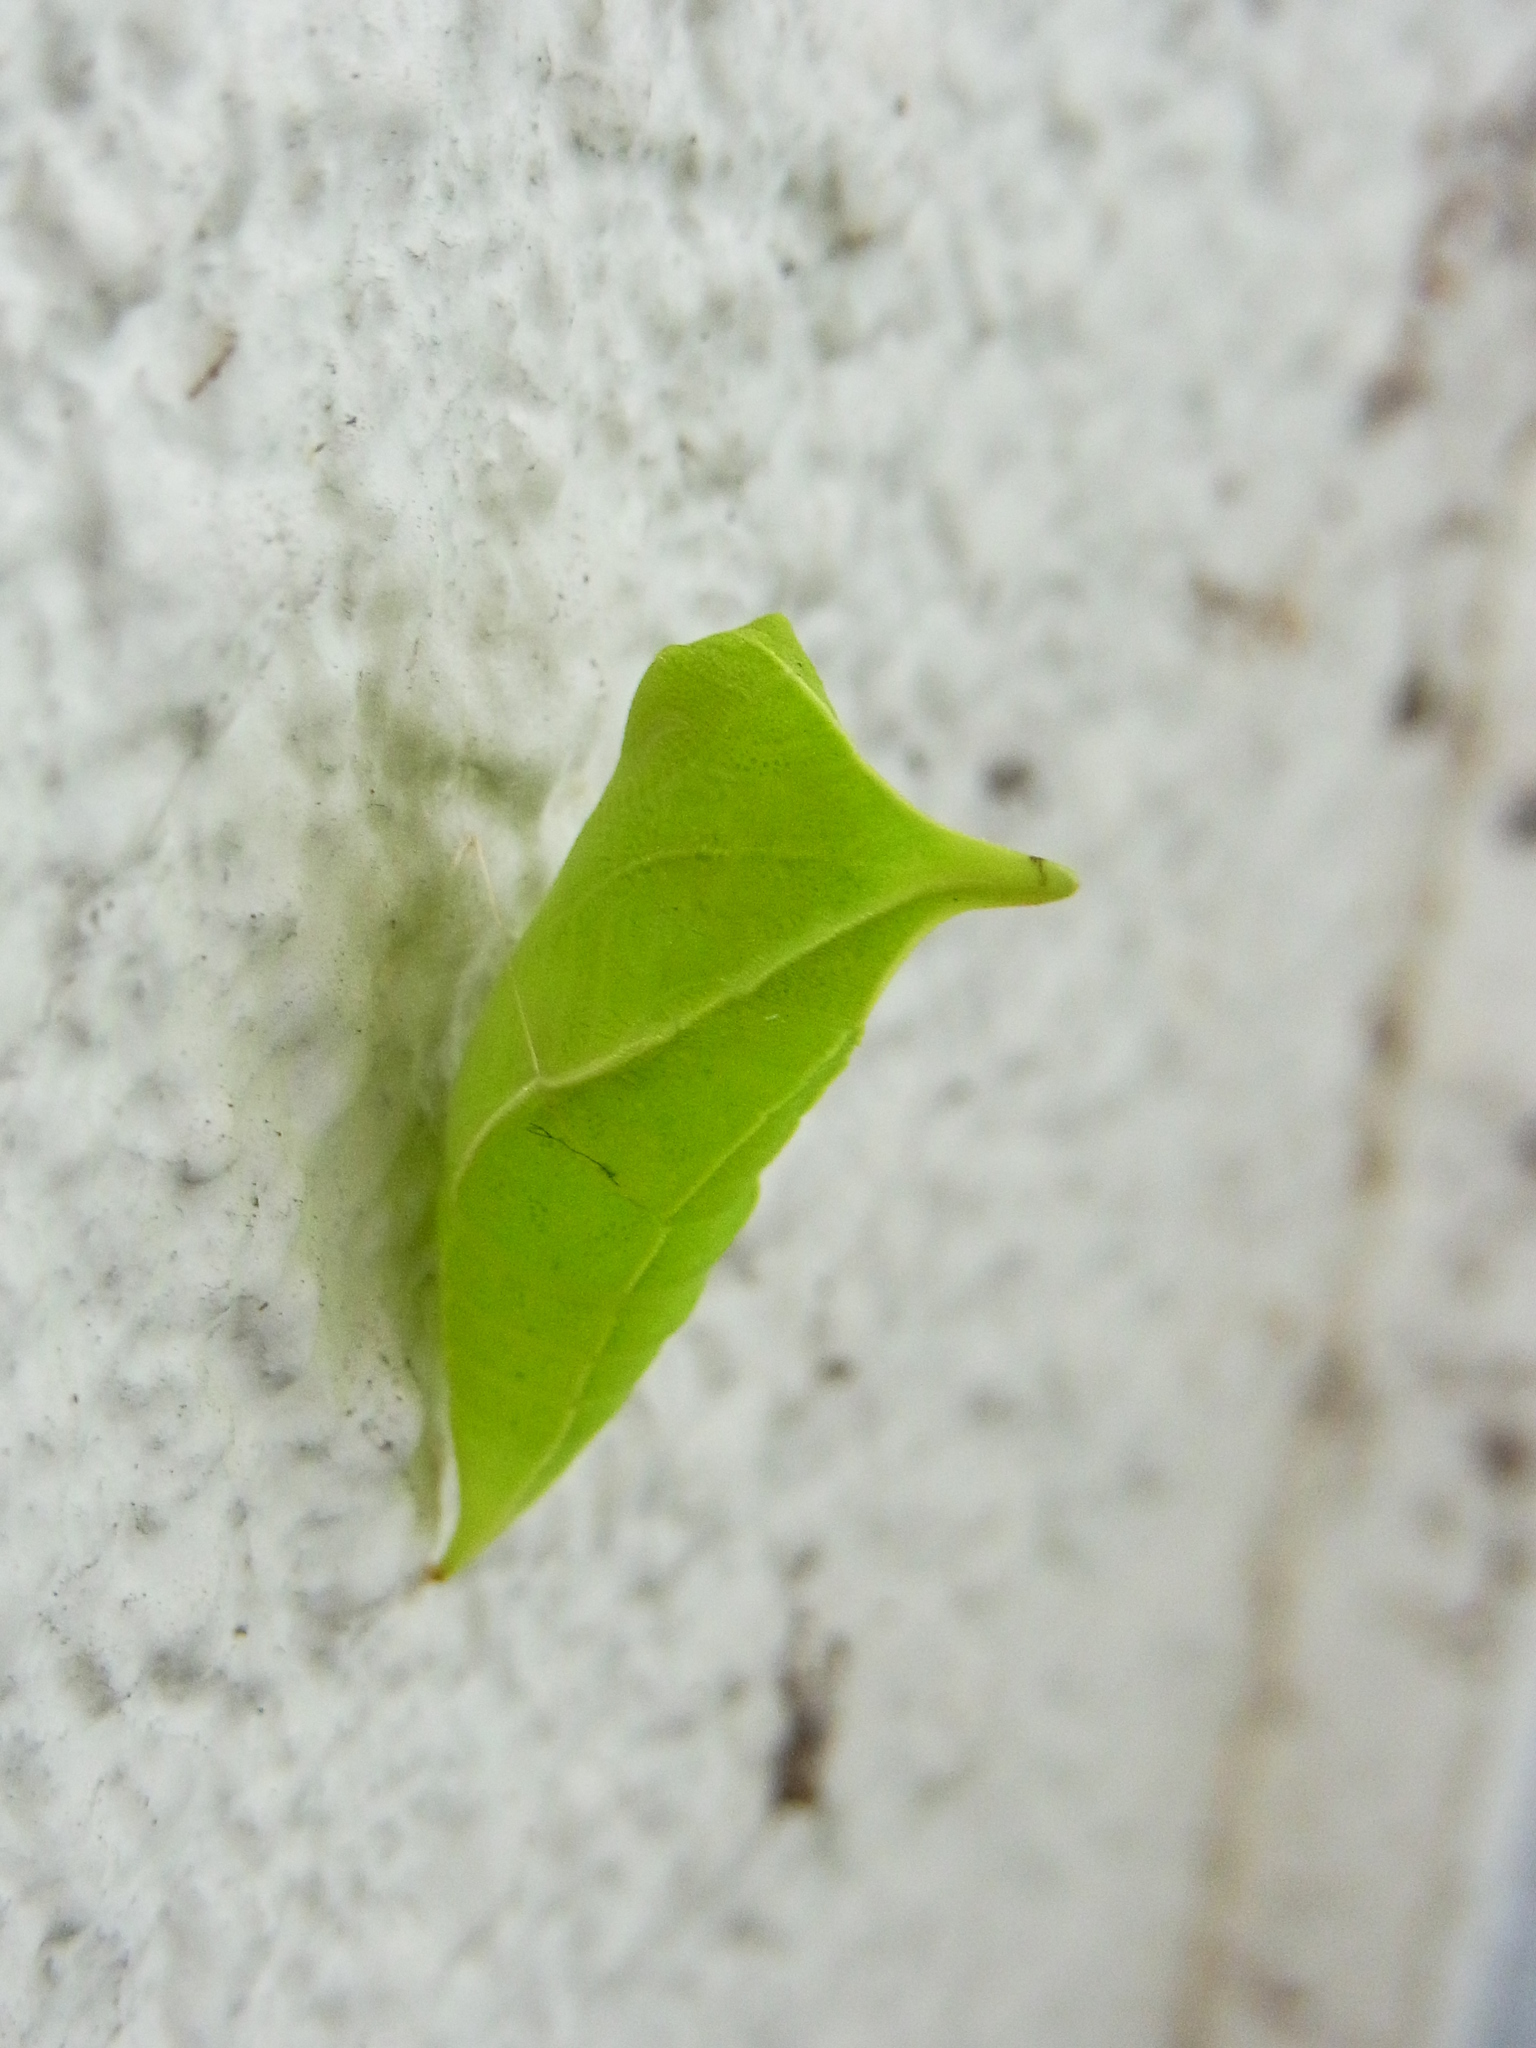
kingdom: Fungi
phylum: Ascomycota
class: Sordariomycetes
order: Microascales
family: Microascaceae
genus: Graphium
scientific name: Graphium sarpedon
